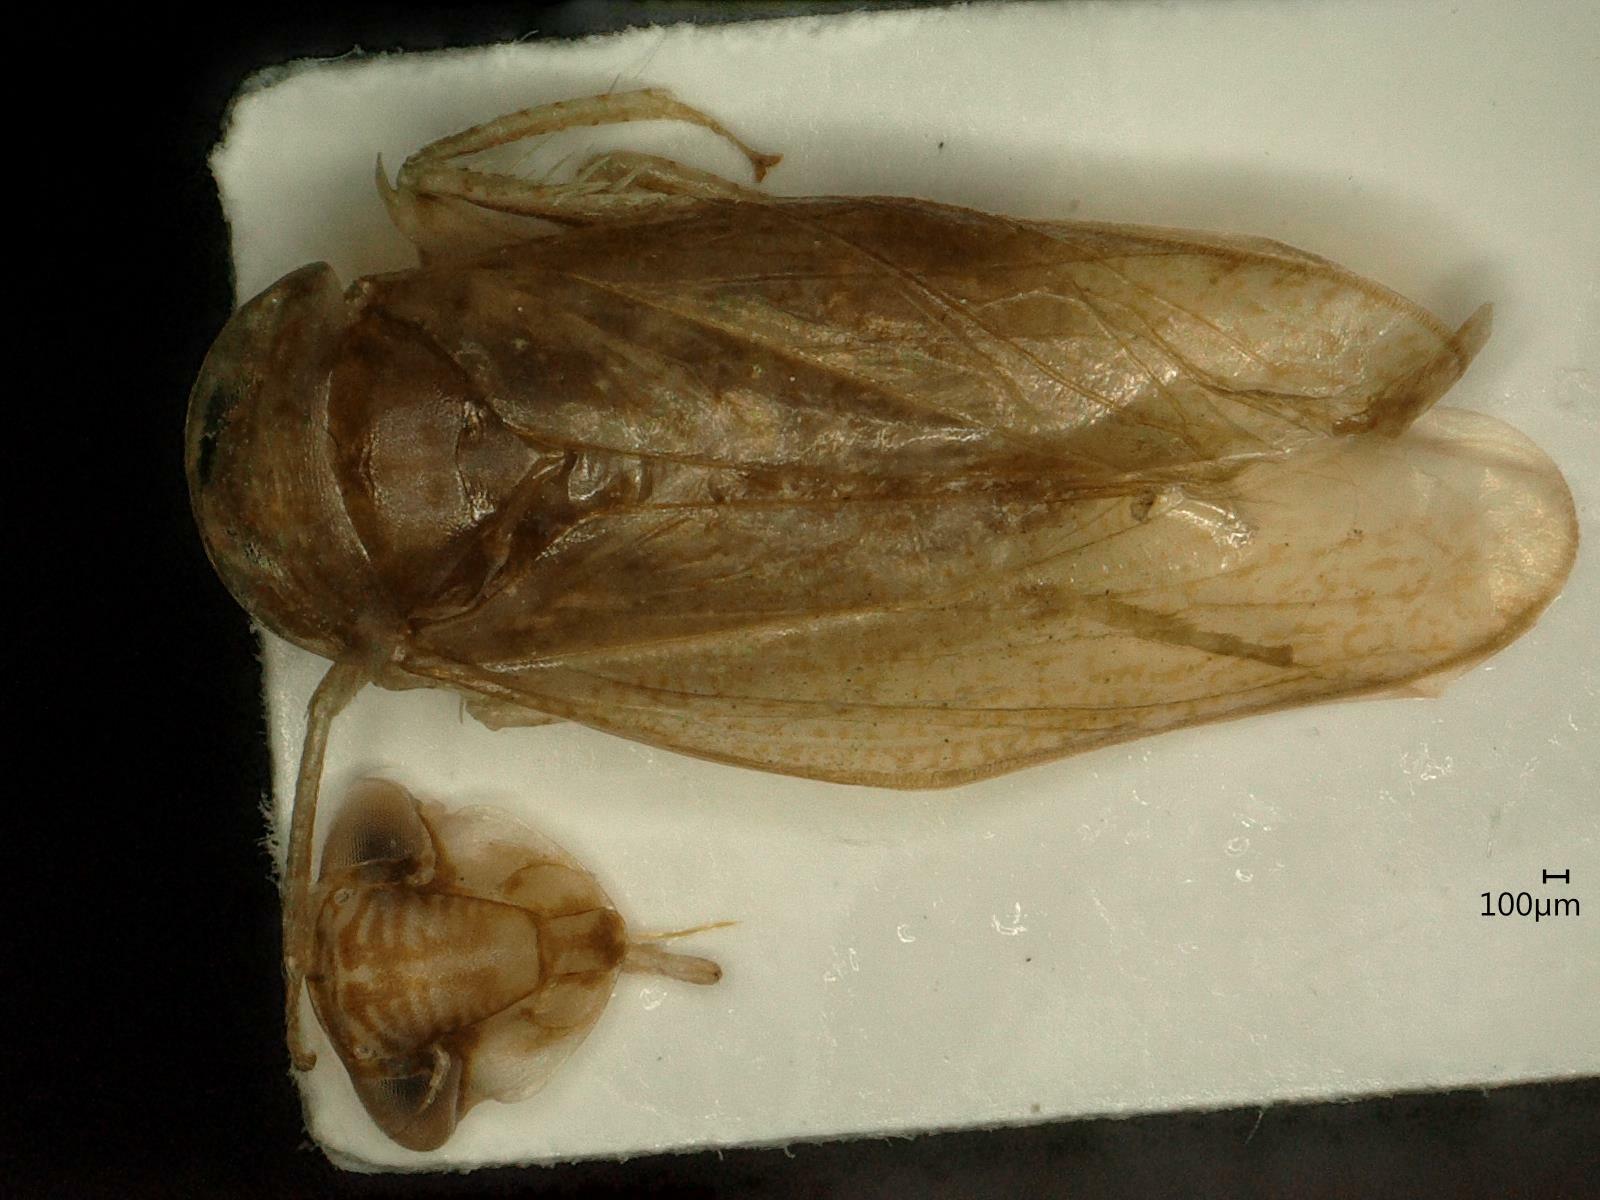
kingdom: Animalia
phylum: Arthropoda
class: Insecta
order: Hemiptera
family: Cicadellidae
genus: Allygus
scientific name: Allygus modestus
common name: Leafhopper
